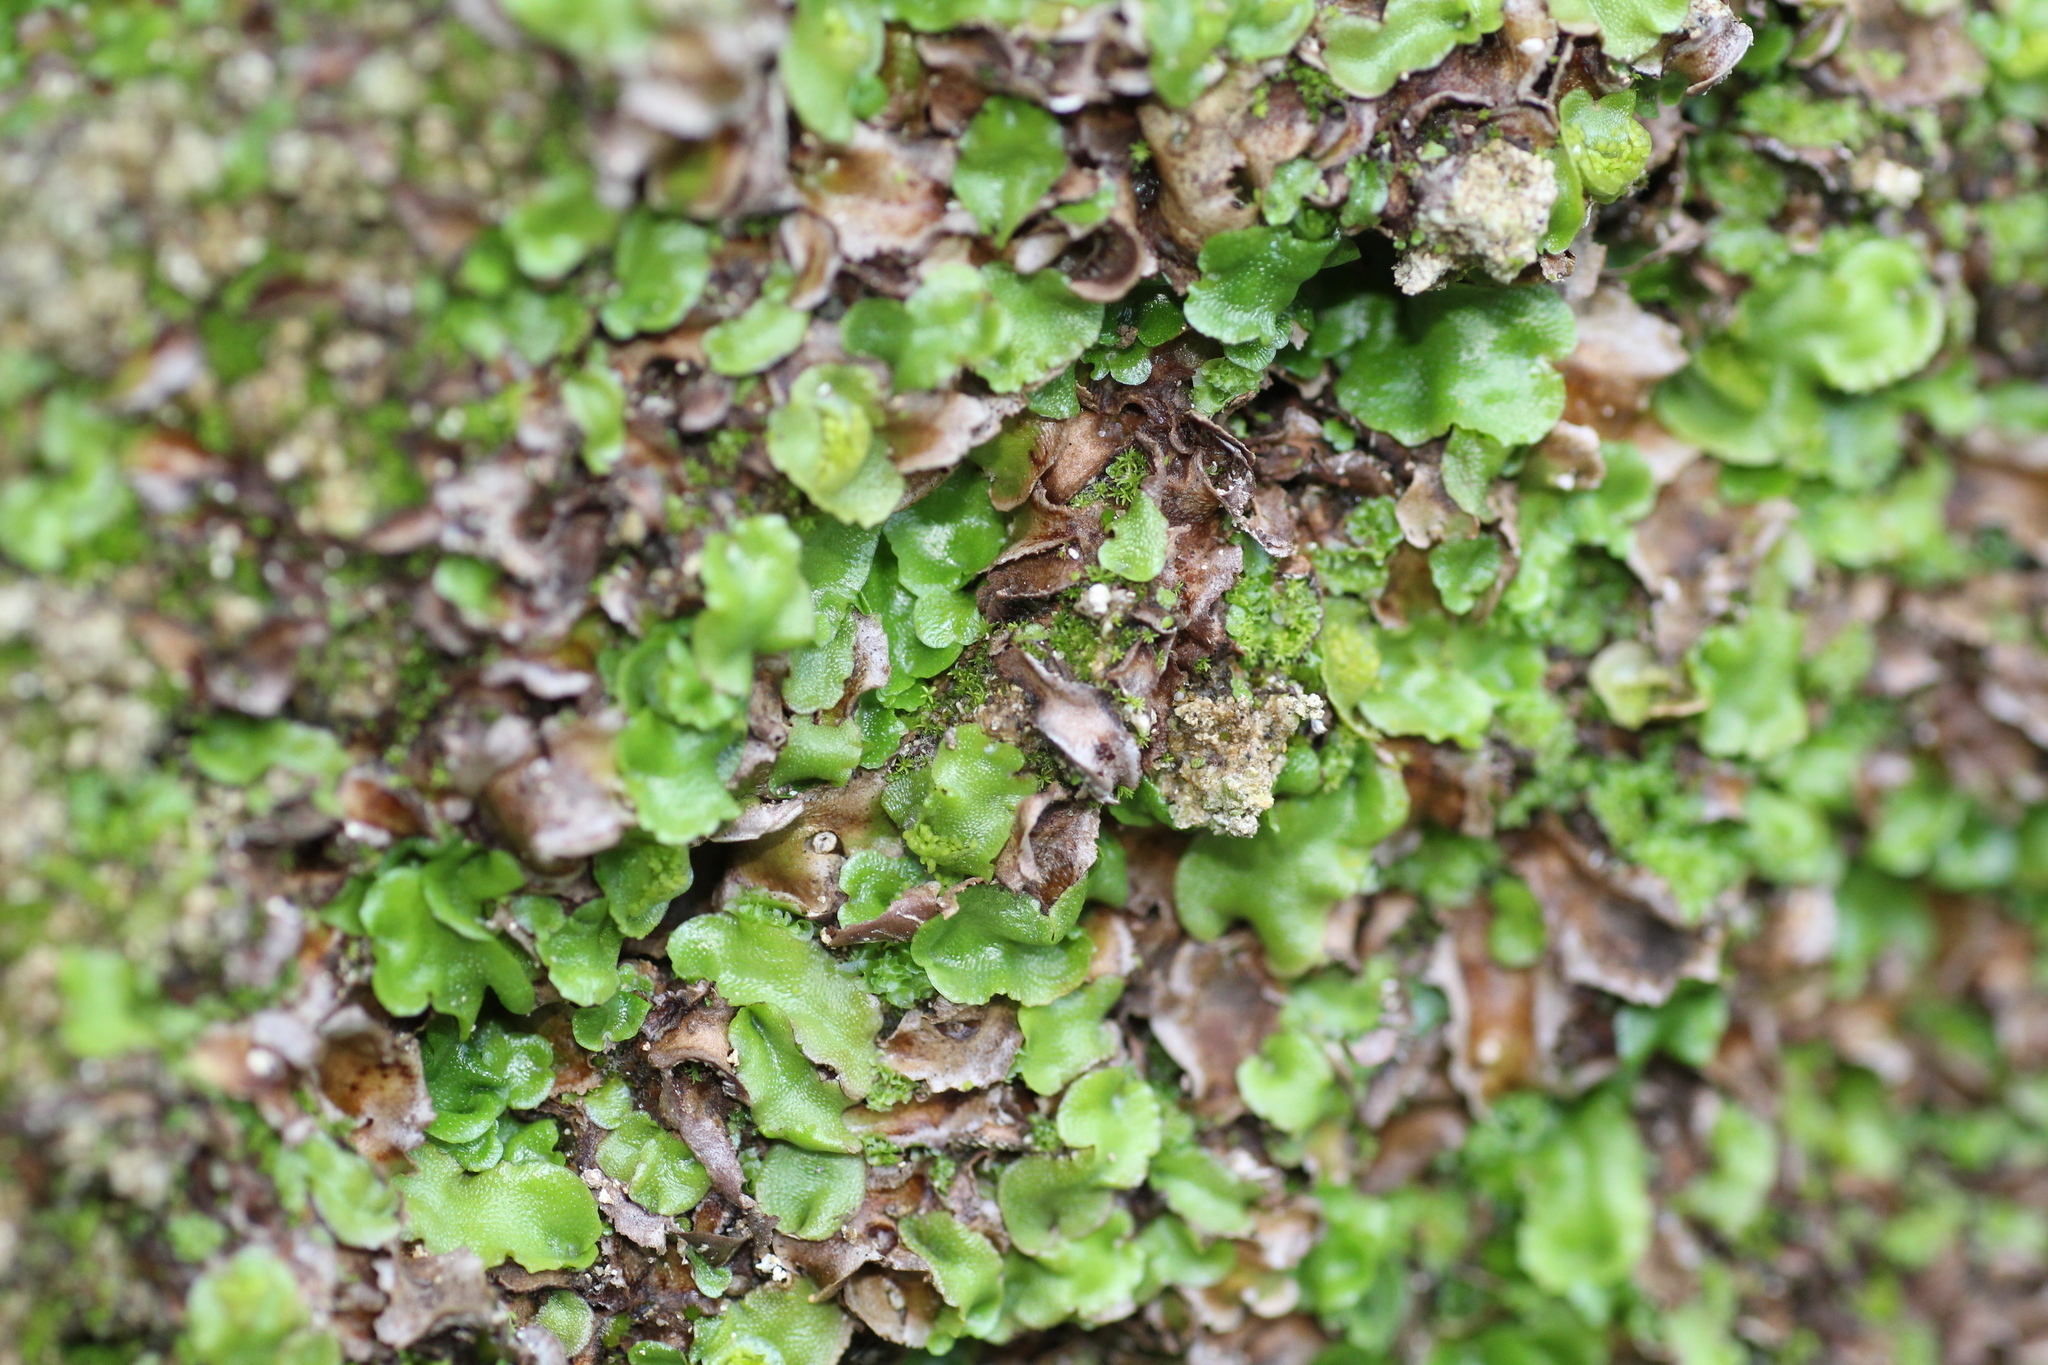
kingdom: Plantae
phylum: Marchantiophyta
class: Marchantiopsida
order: Lunulariales
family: Lunulariaceae
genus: Lunularia
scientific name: Lunularia cruciata
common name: Crescent-cup liverwort
